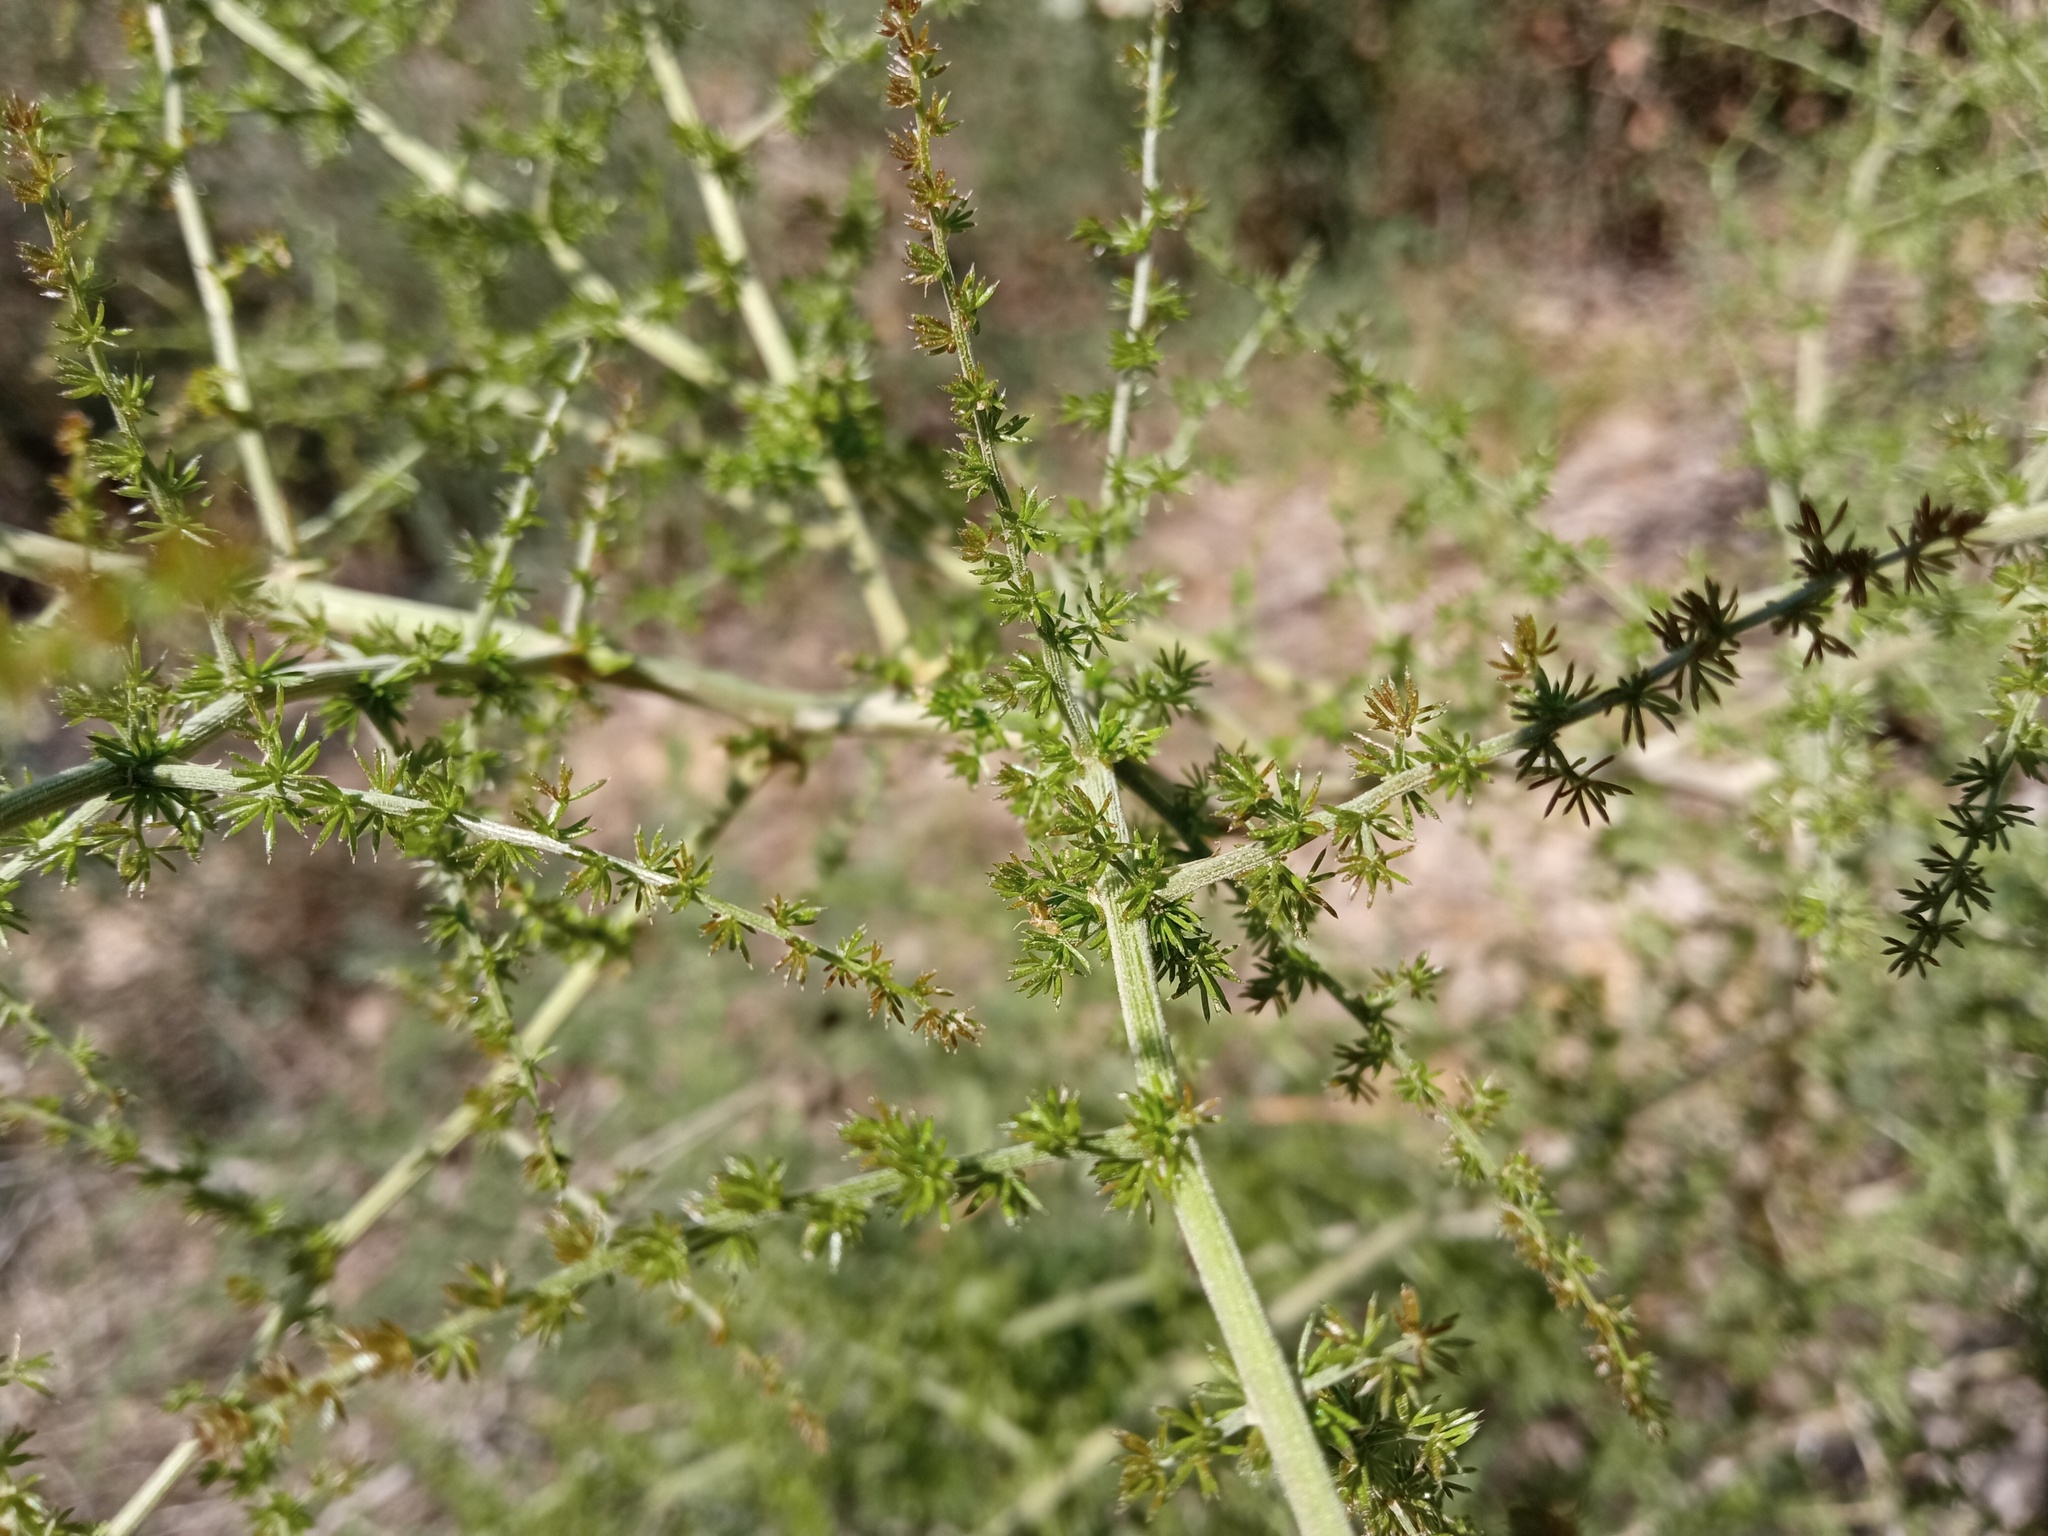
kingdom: Plantae
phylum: Tracheophyta
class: Liliopsida
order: Asparagales
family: Asparagaceae
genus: Asparagus
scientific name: Asparagus acutifolius
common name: Wild asparagus
